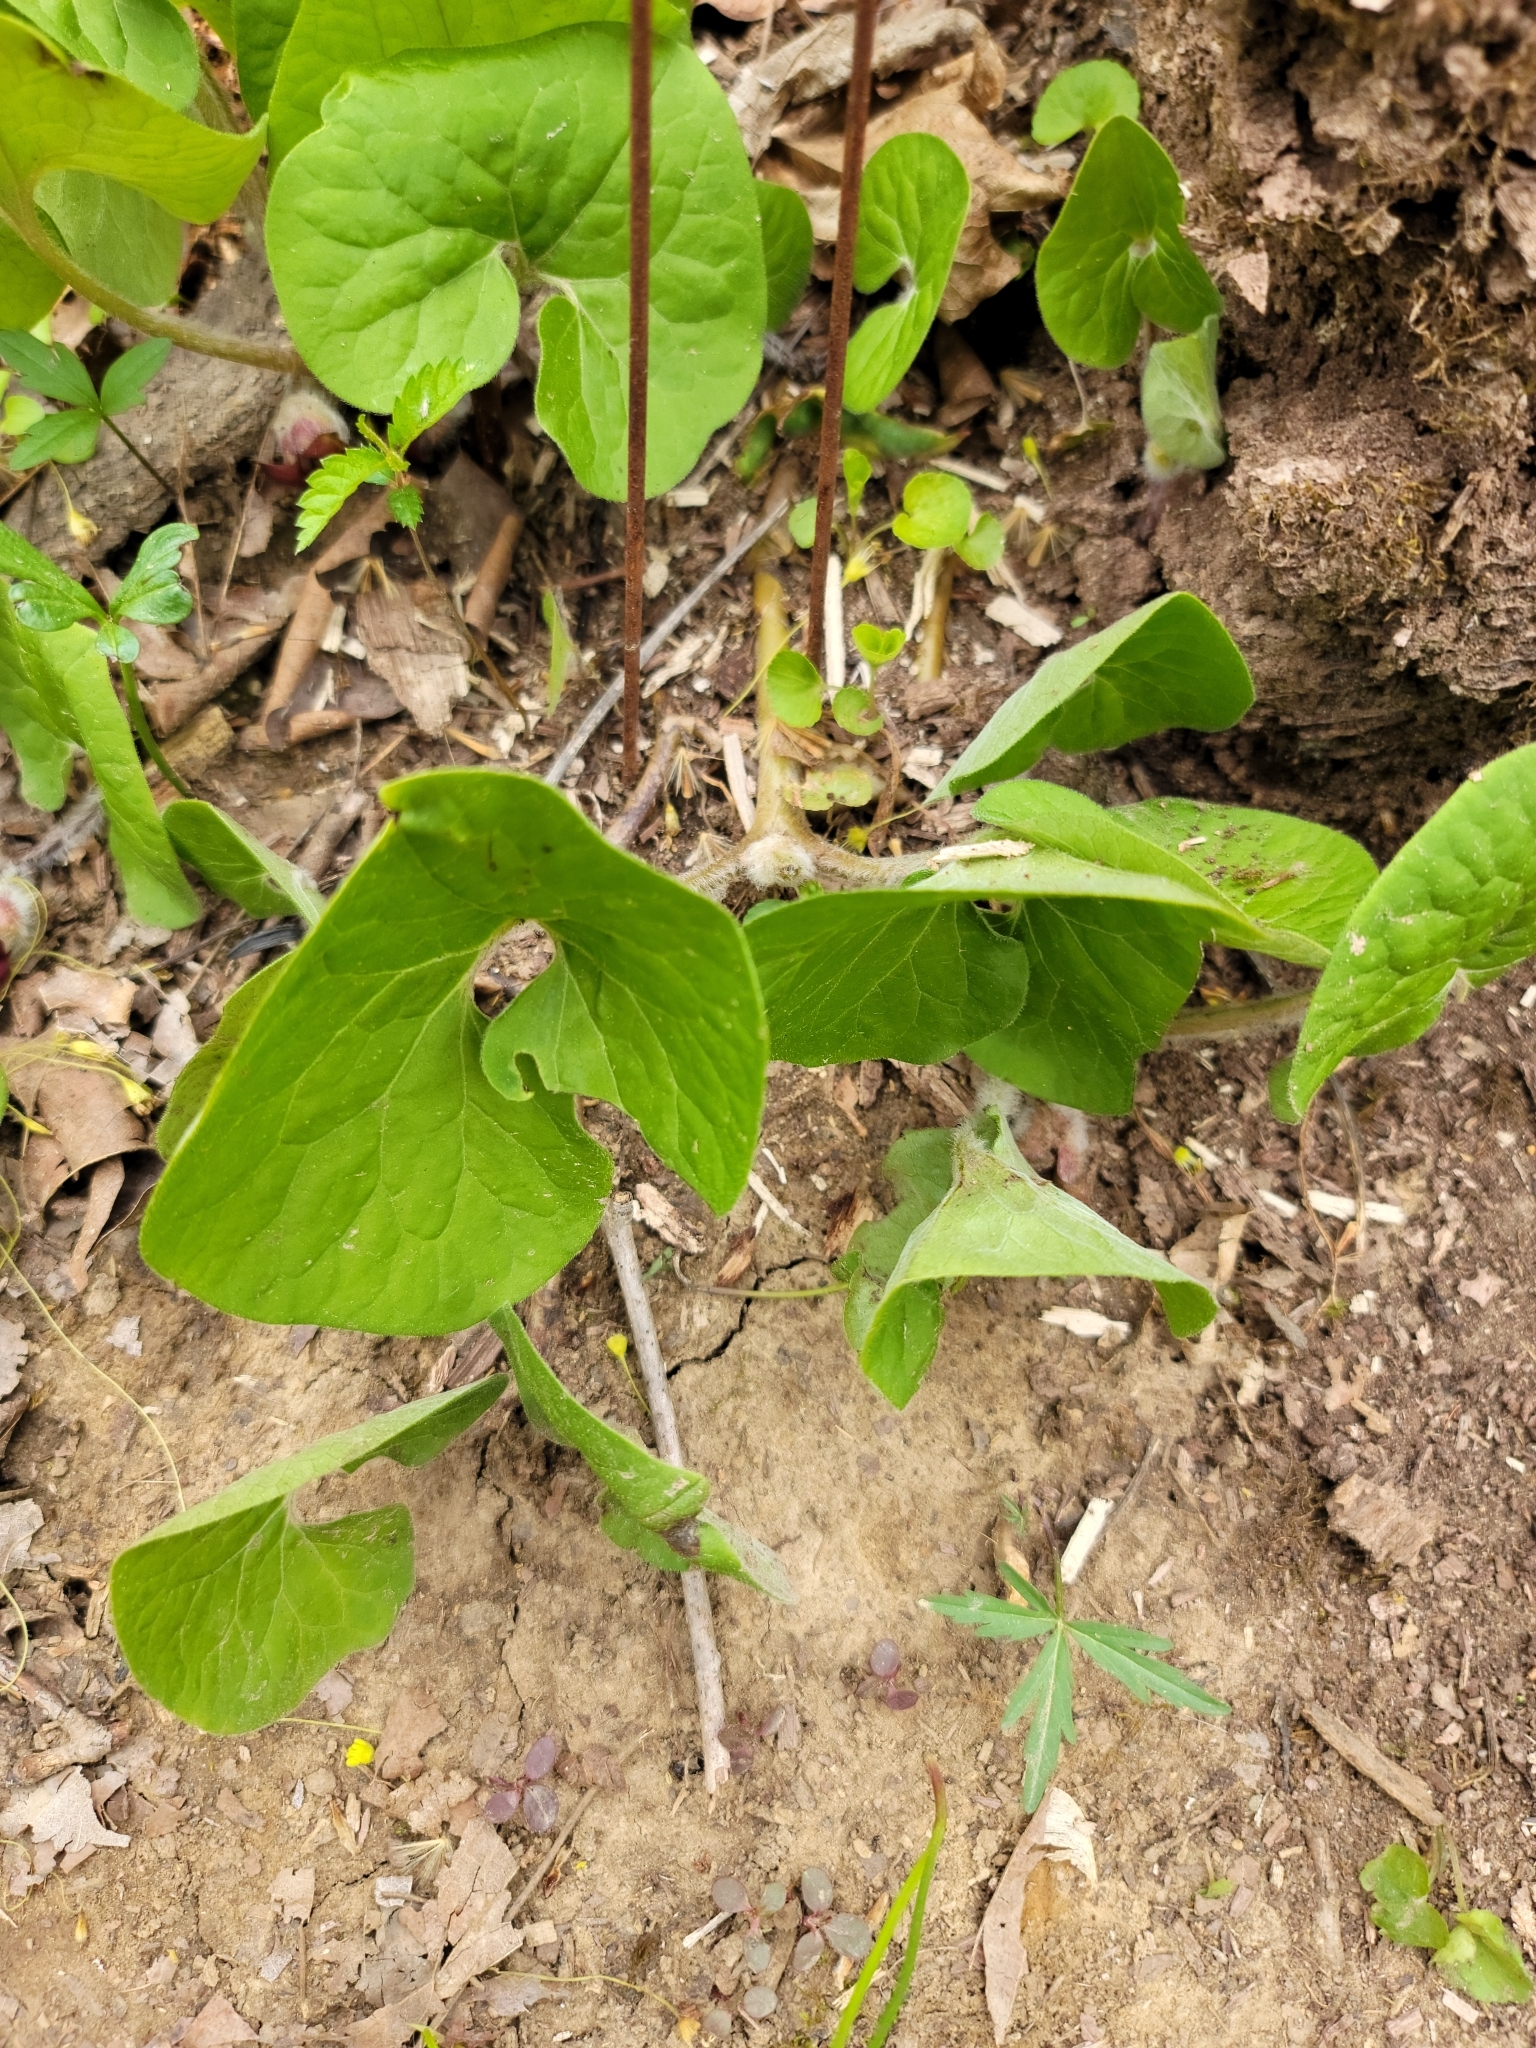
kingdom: Plantae
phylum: Tracheophyta
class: Magnoliopsida
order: Piperales
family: Aristolochiaceae
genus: Asarum
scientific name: Asarum canadense
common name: Wild ginger
